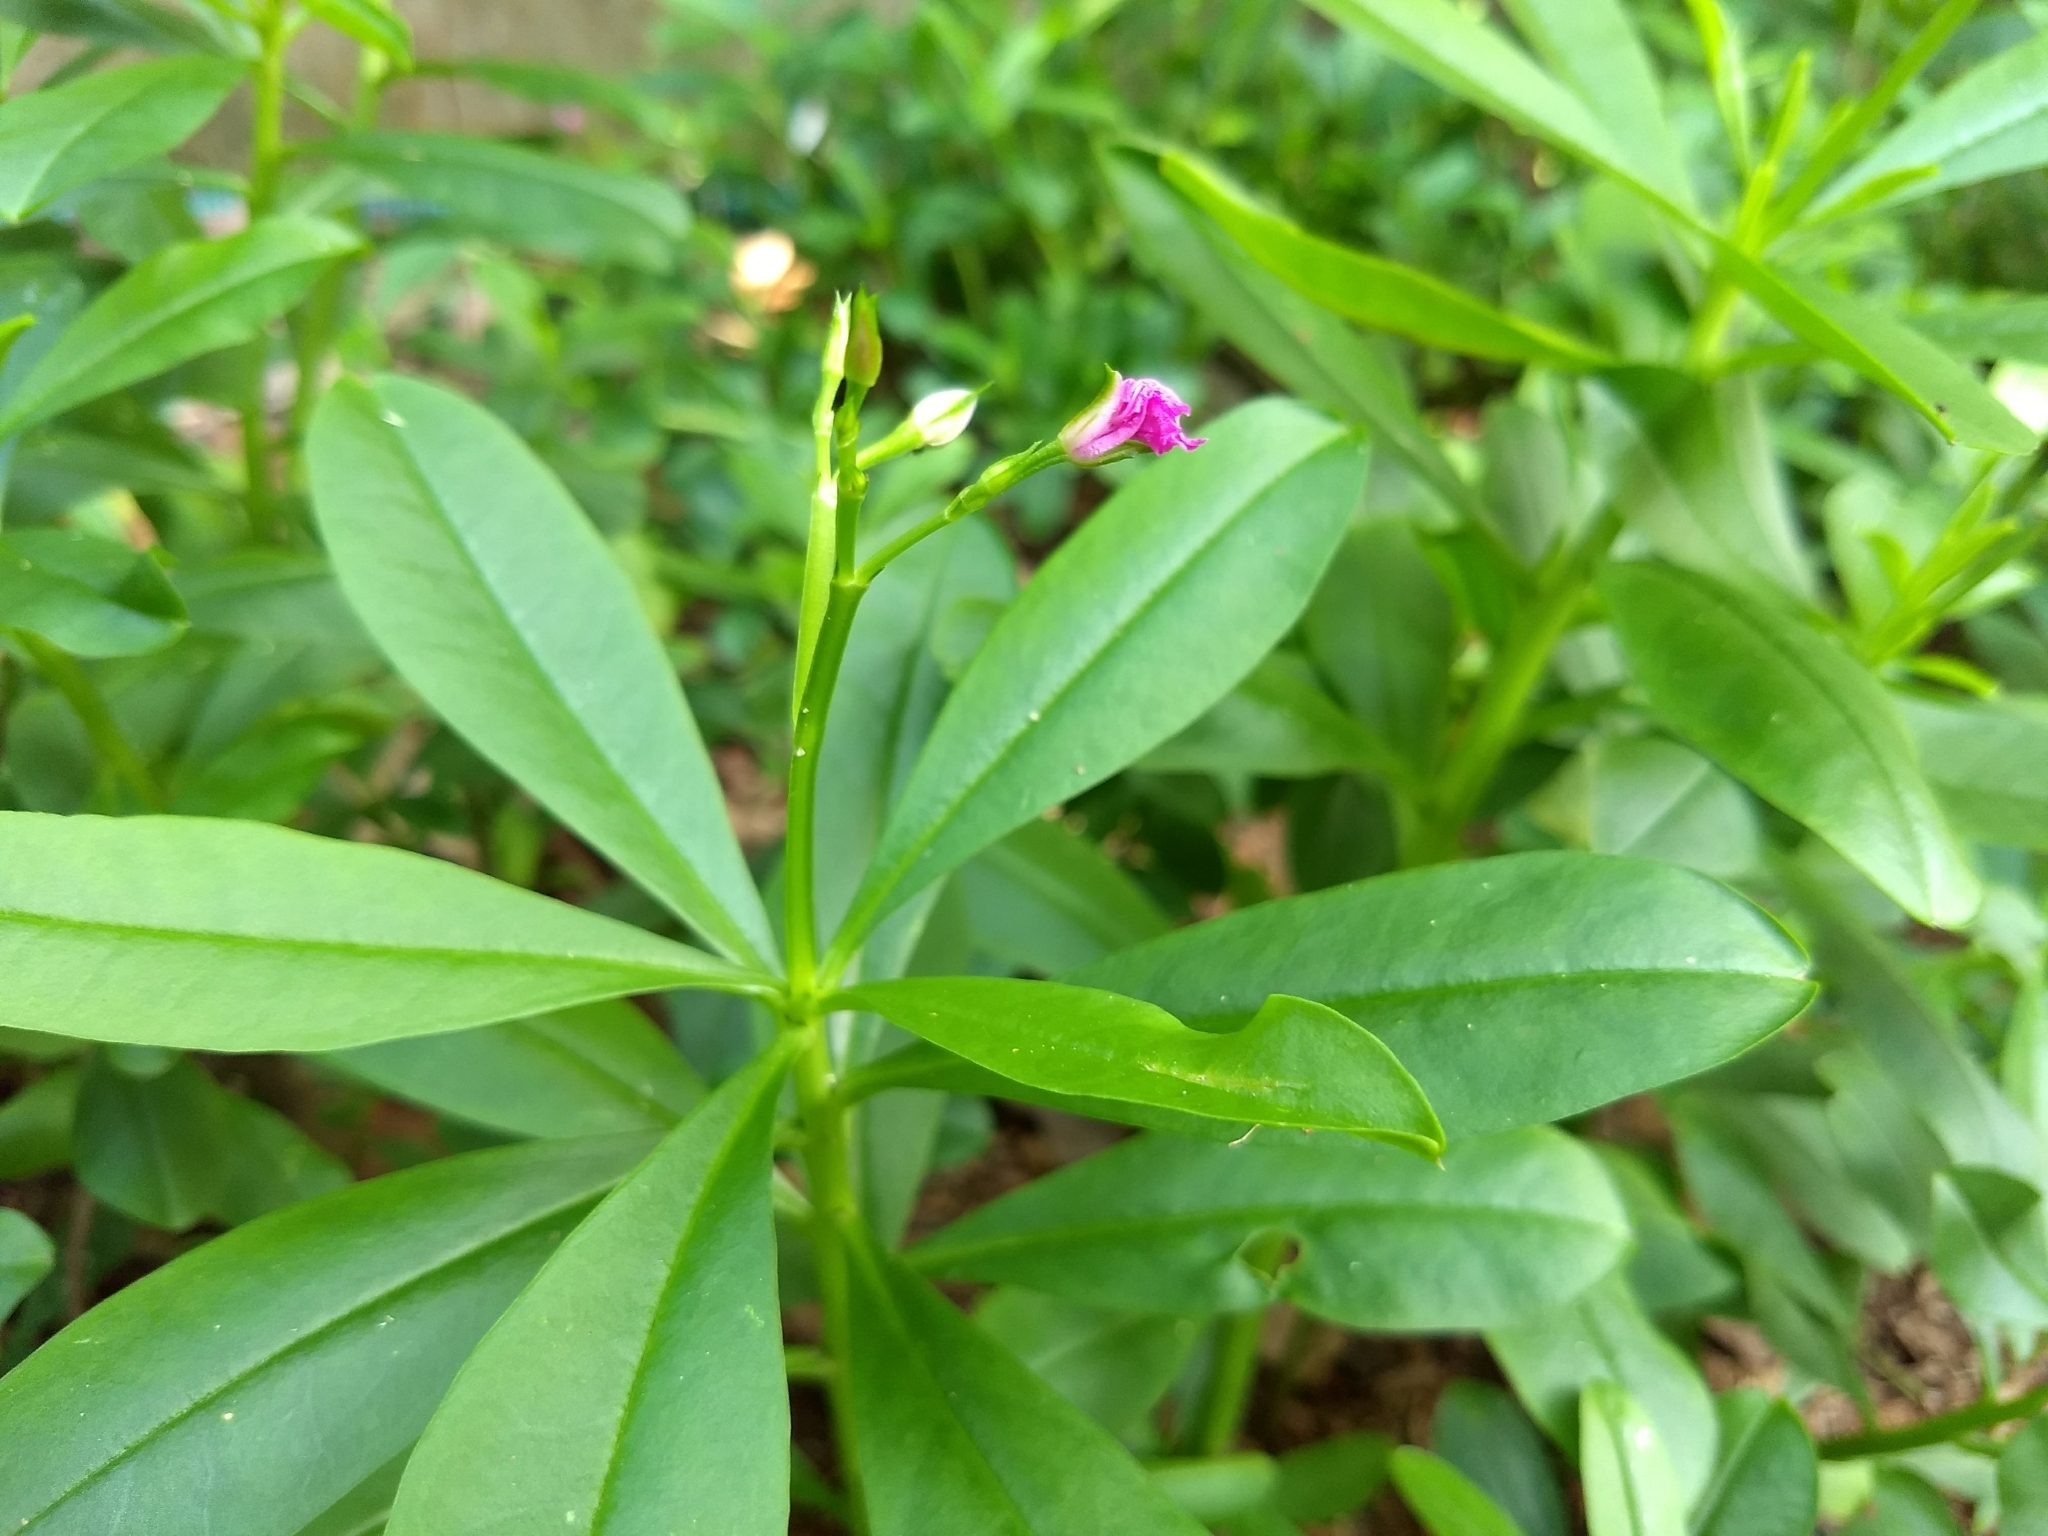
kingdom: Plantae
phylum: Tracheophyta
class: Magnoliopsida
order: Caryophyllales
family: Talinaceae
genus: Talinum
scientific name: Talinum fruticosum
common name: Verdolaga-francesa
